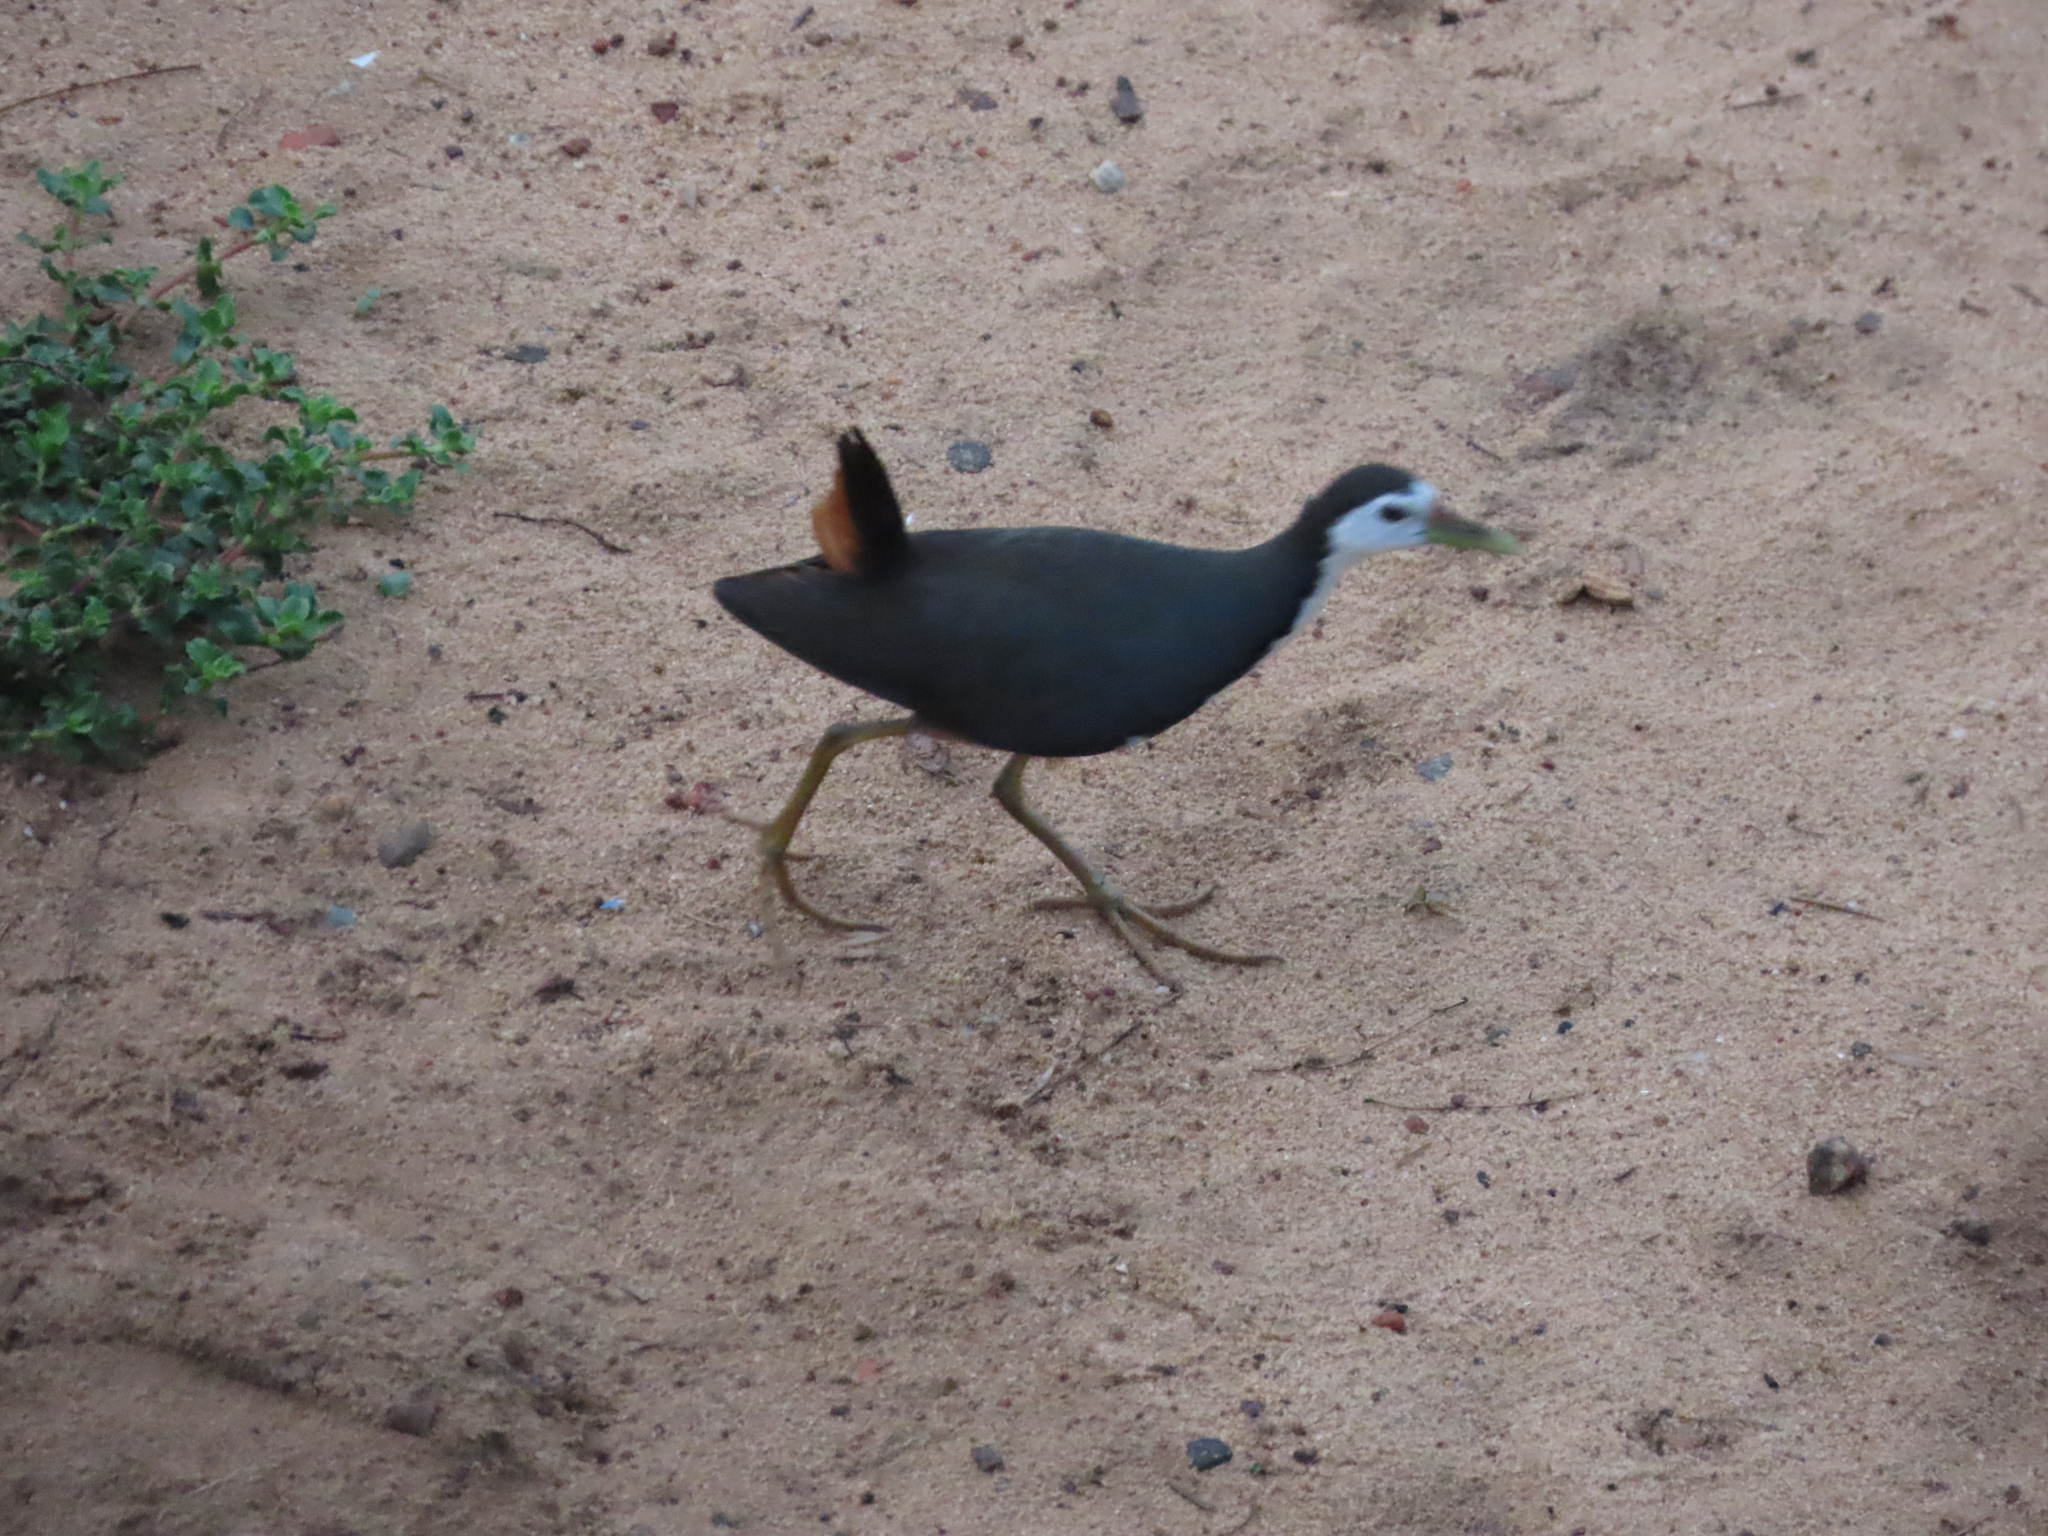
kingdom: Animalia
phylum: Chordata
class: Aves
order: Gruiformes
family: Rallidae
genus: Amaurornis
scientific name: Amaurornis phoenicurus
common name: White-breasted waterhen
